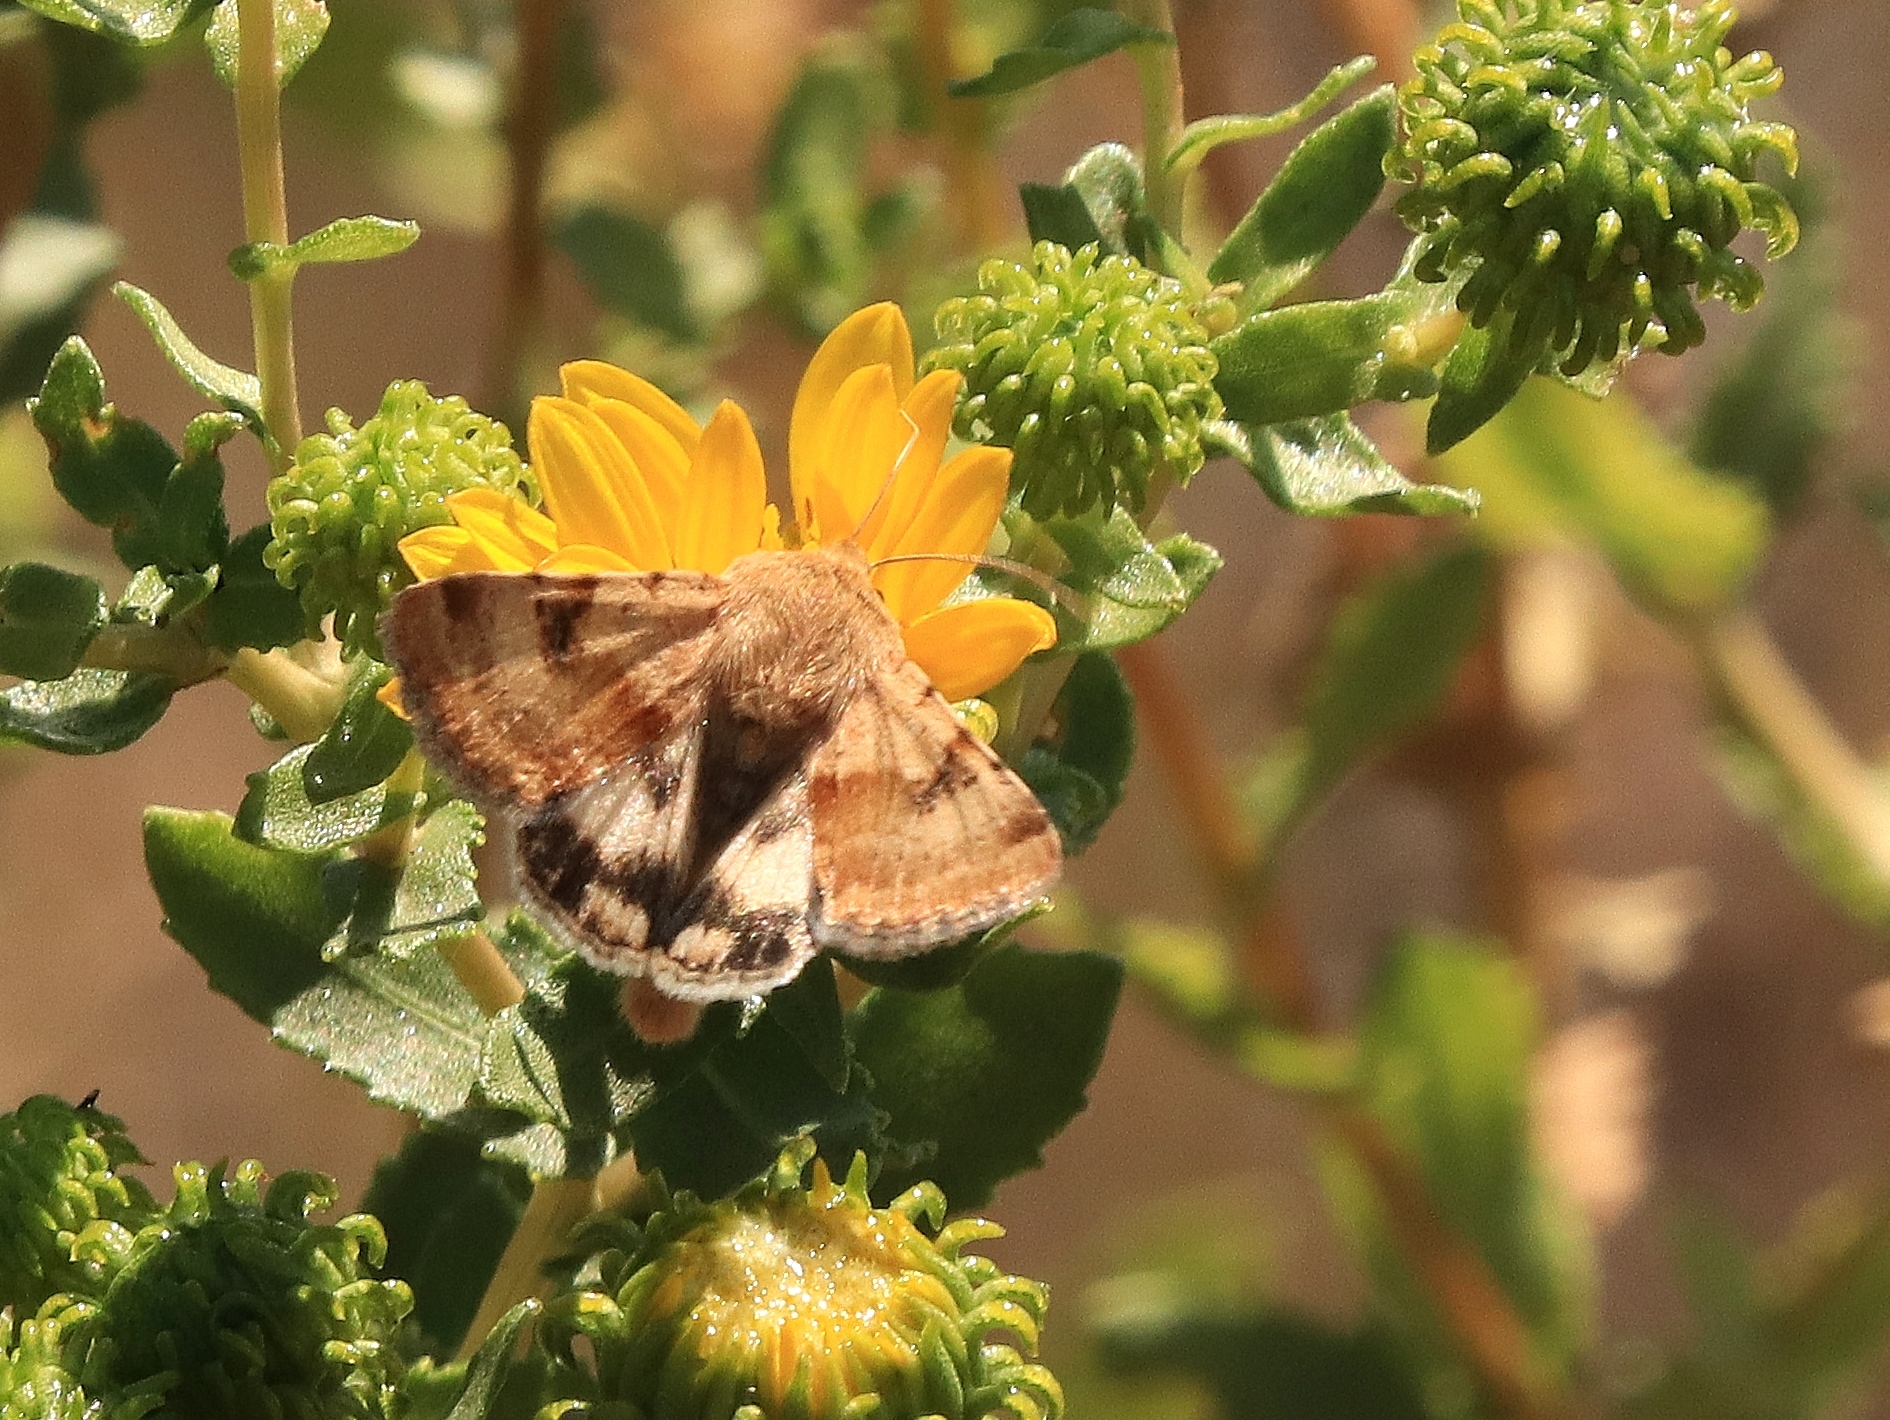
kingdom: Animalia
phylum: Arthropoda
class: Insecta
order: Lepidoptera
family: Noctuidae
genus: Heliothis
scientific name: Heliothis phloxiphaga
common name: Darker spotted straw moth
